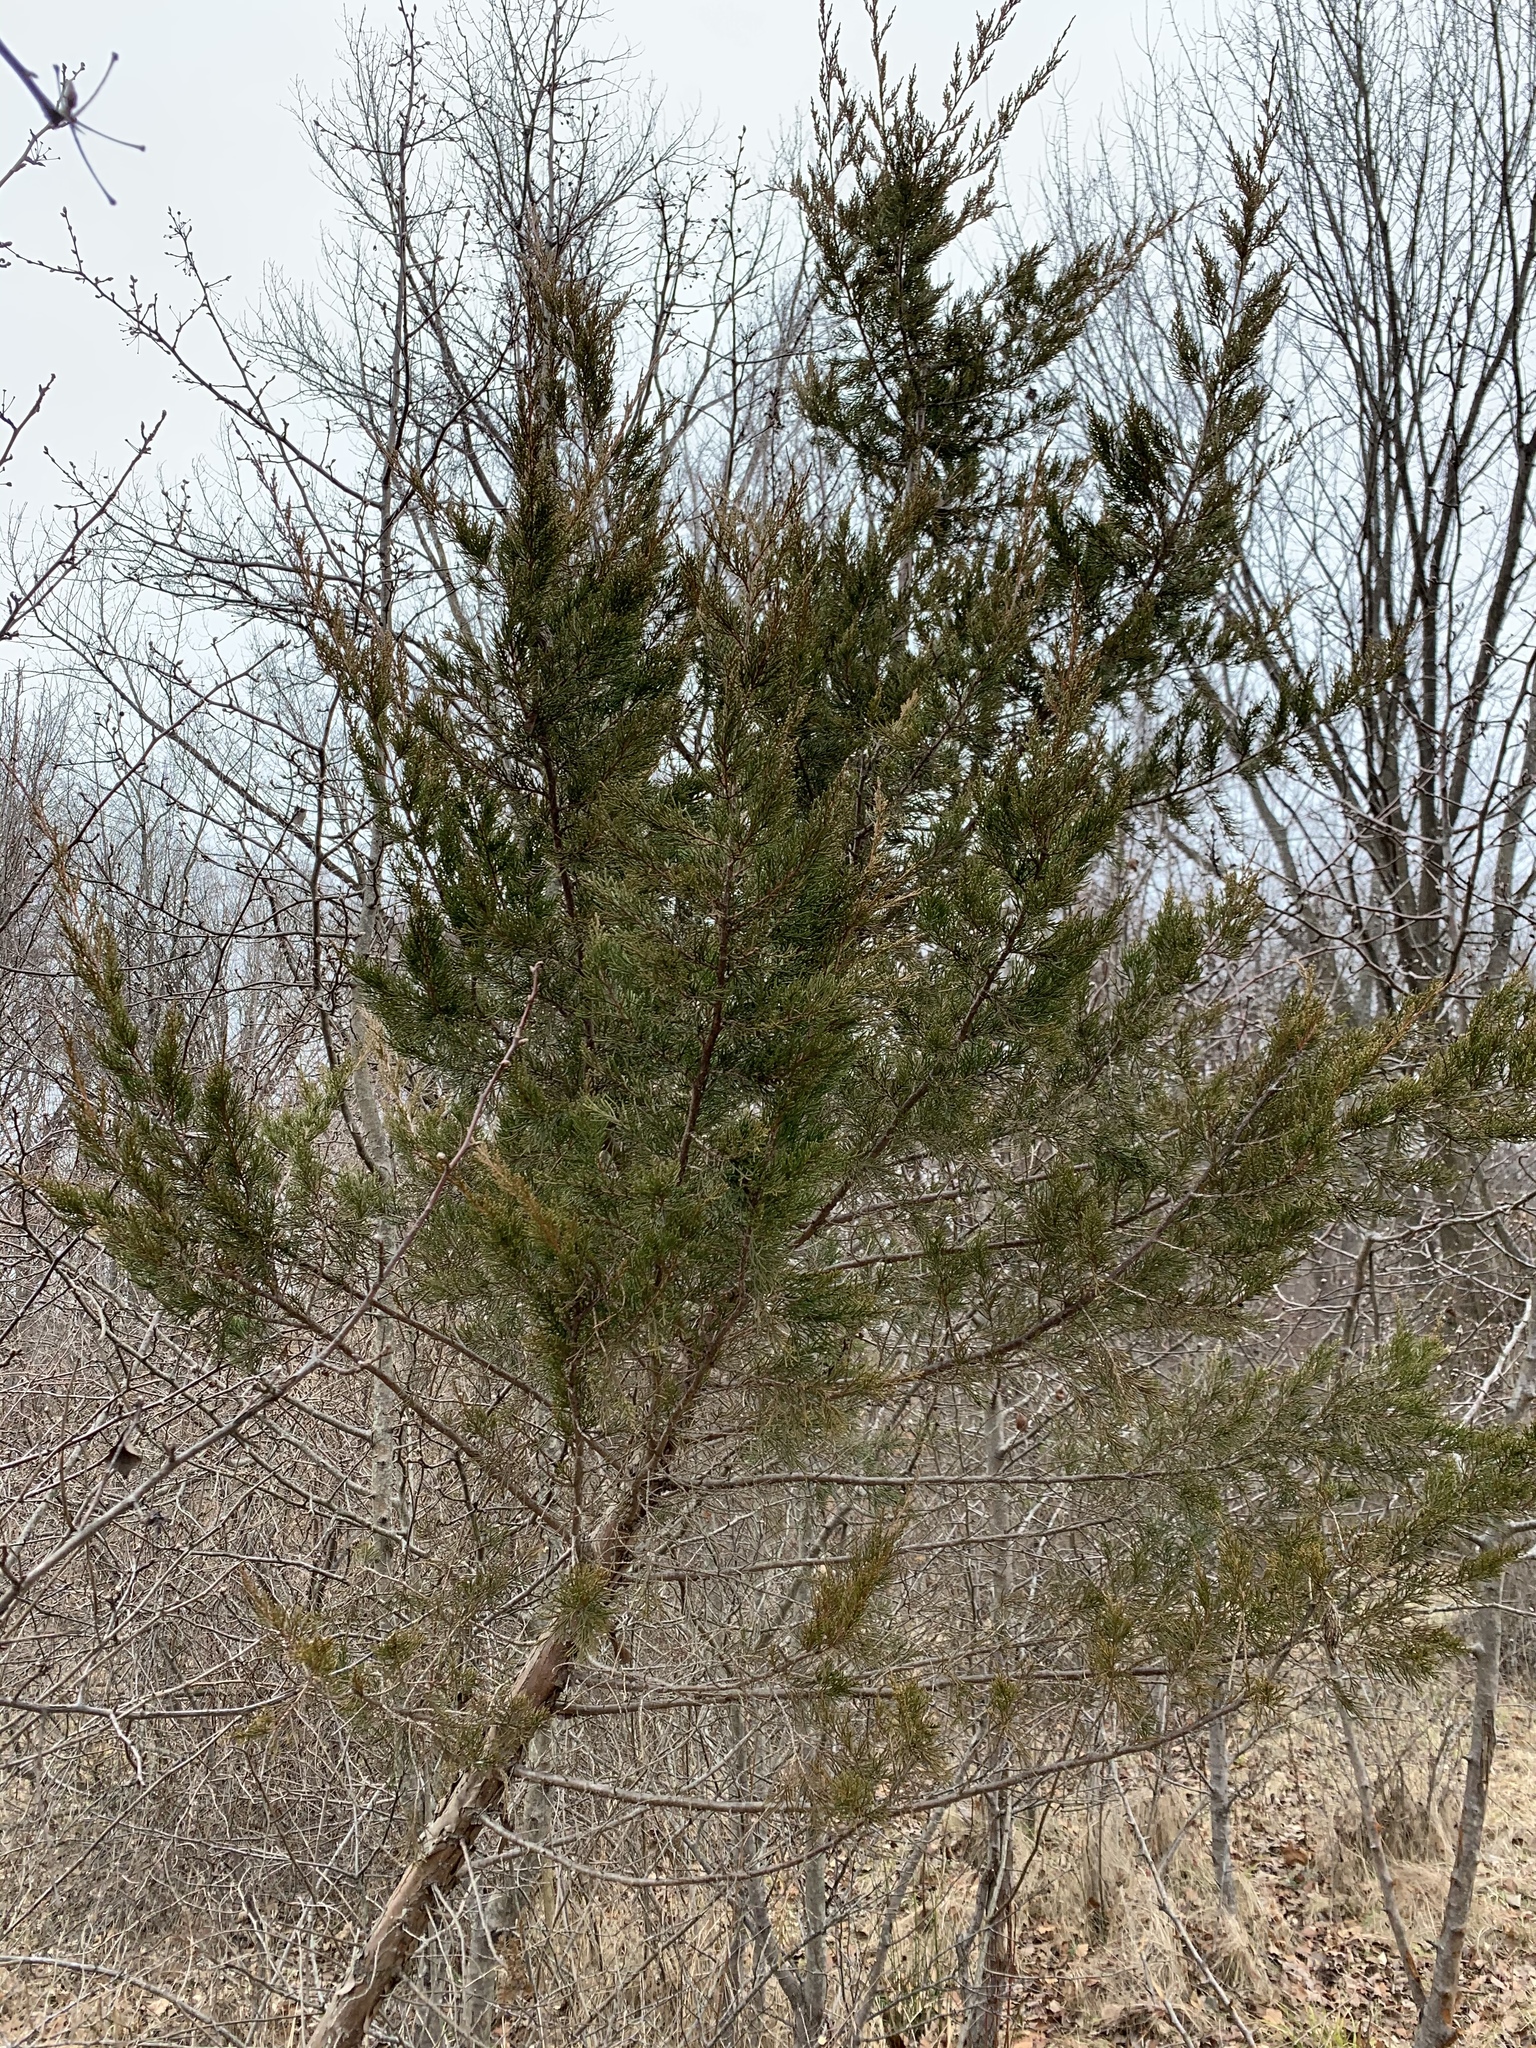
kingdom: Plantae
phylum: Tracheophyta
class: Pinopsida
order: Pinales
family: Cupressaceae
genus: Juniperus
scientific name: Juniperus virginiana
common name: Red juniper
